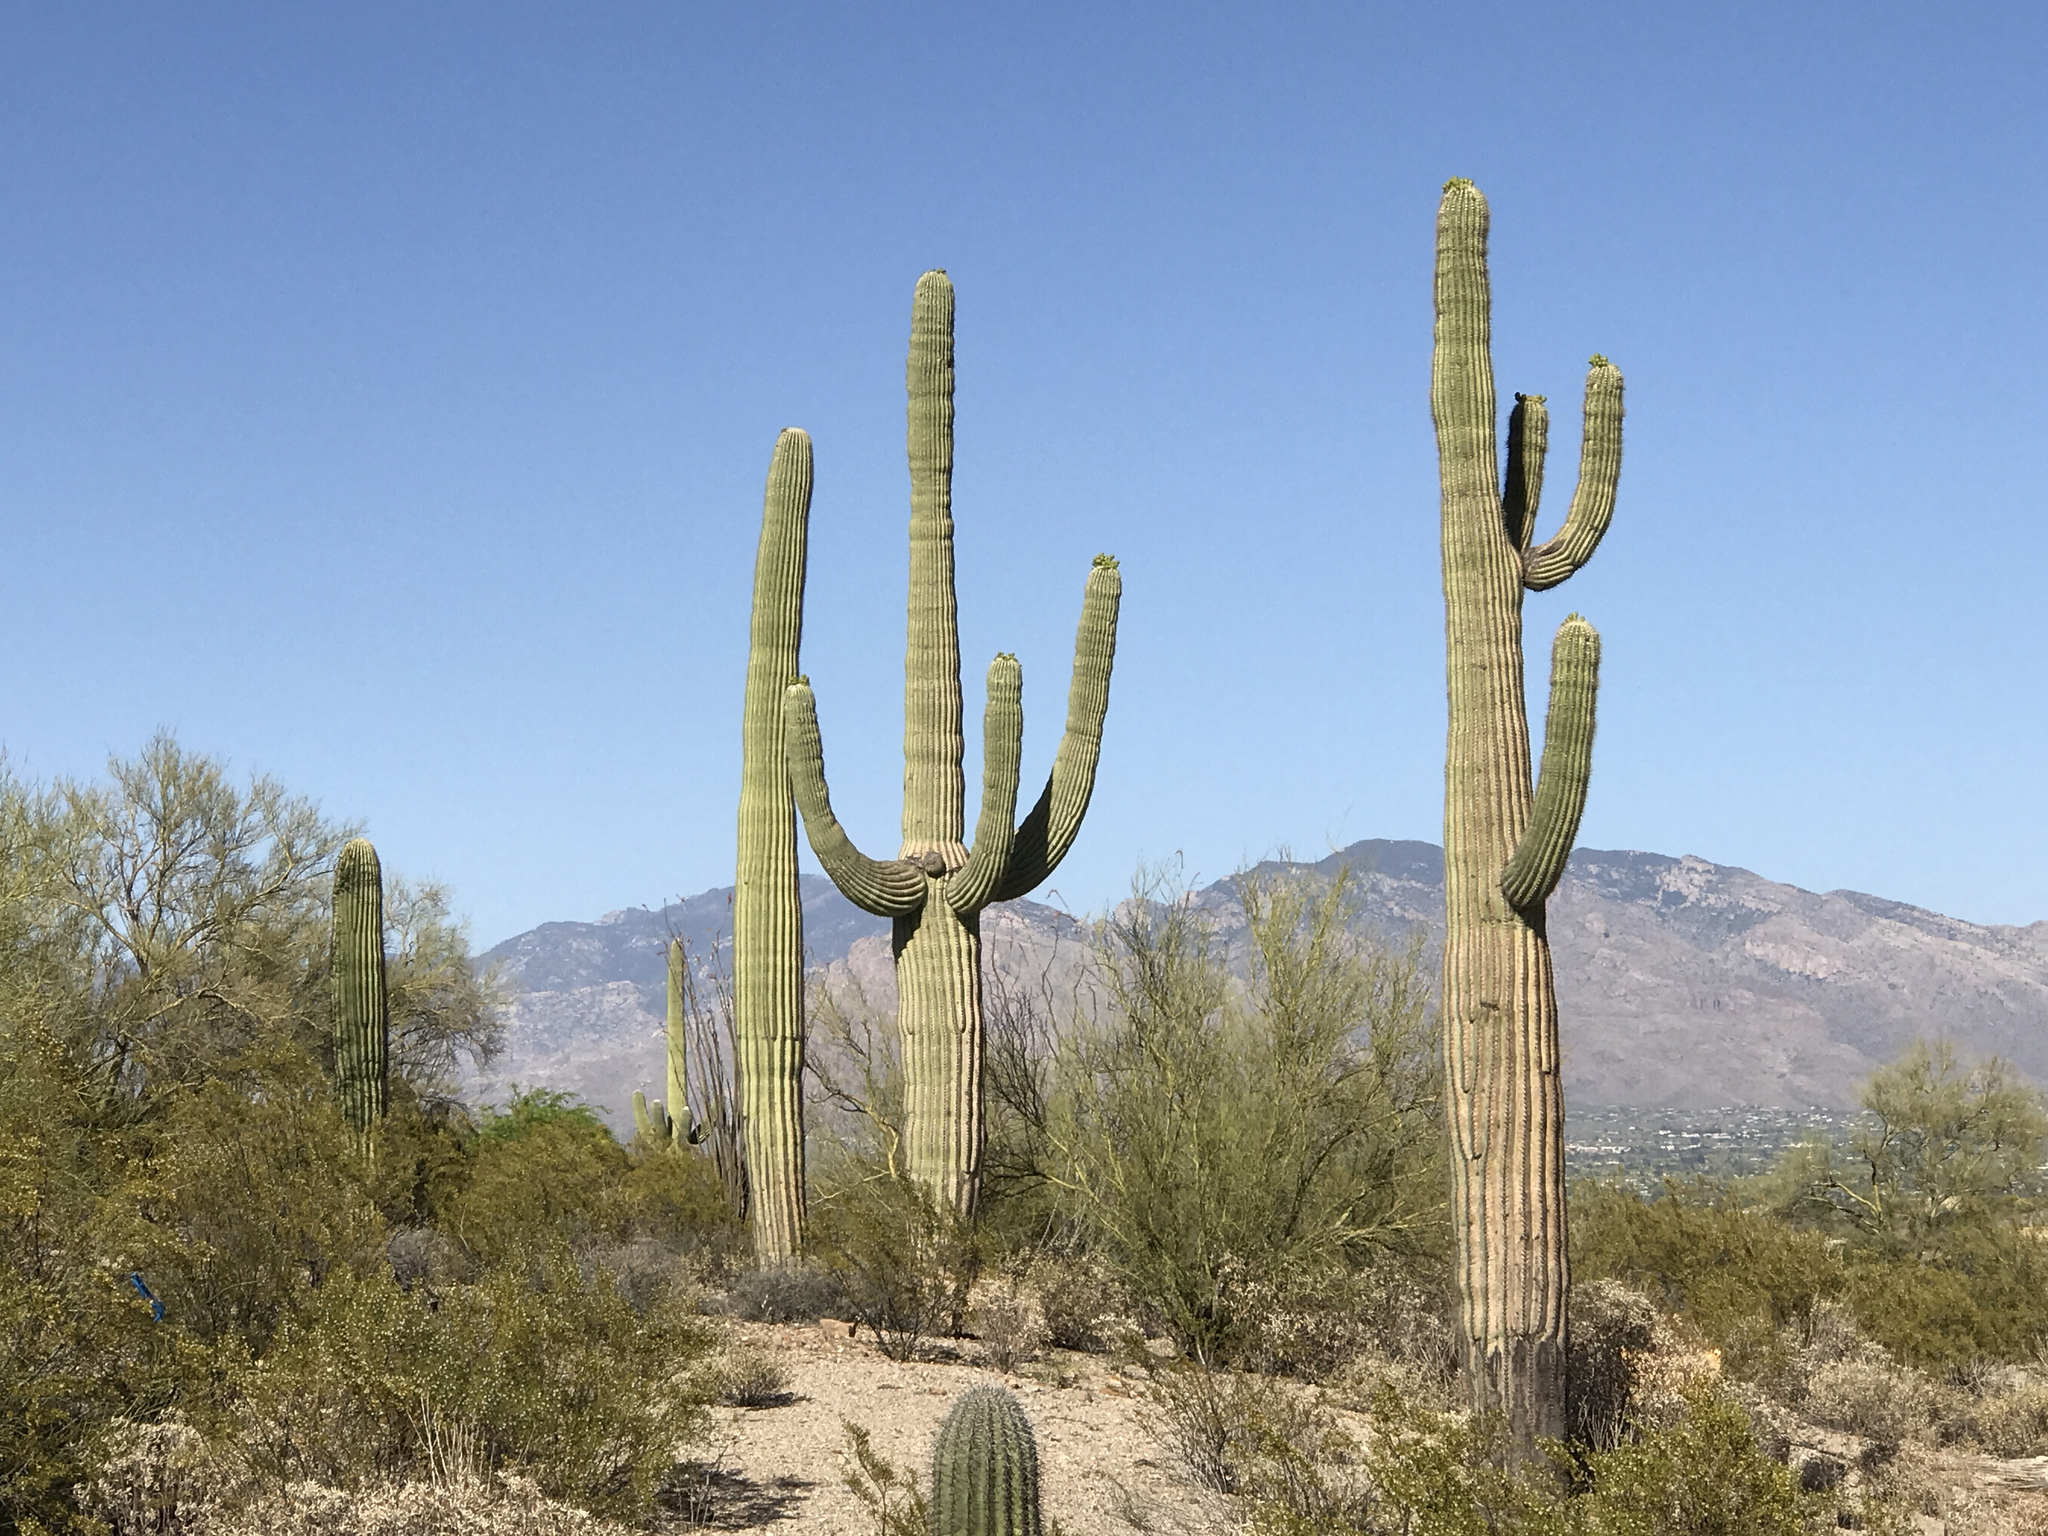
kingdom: Plantae
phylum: Tracheophyta
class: Magnoliopsida
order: Caryophyllales
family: Cactaceae
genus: Carnegiea
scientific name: Carnegiea gigantea
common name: Saguaro
